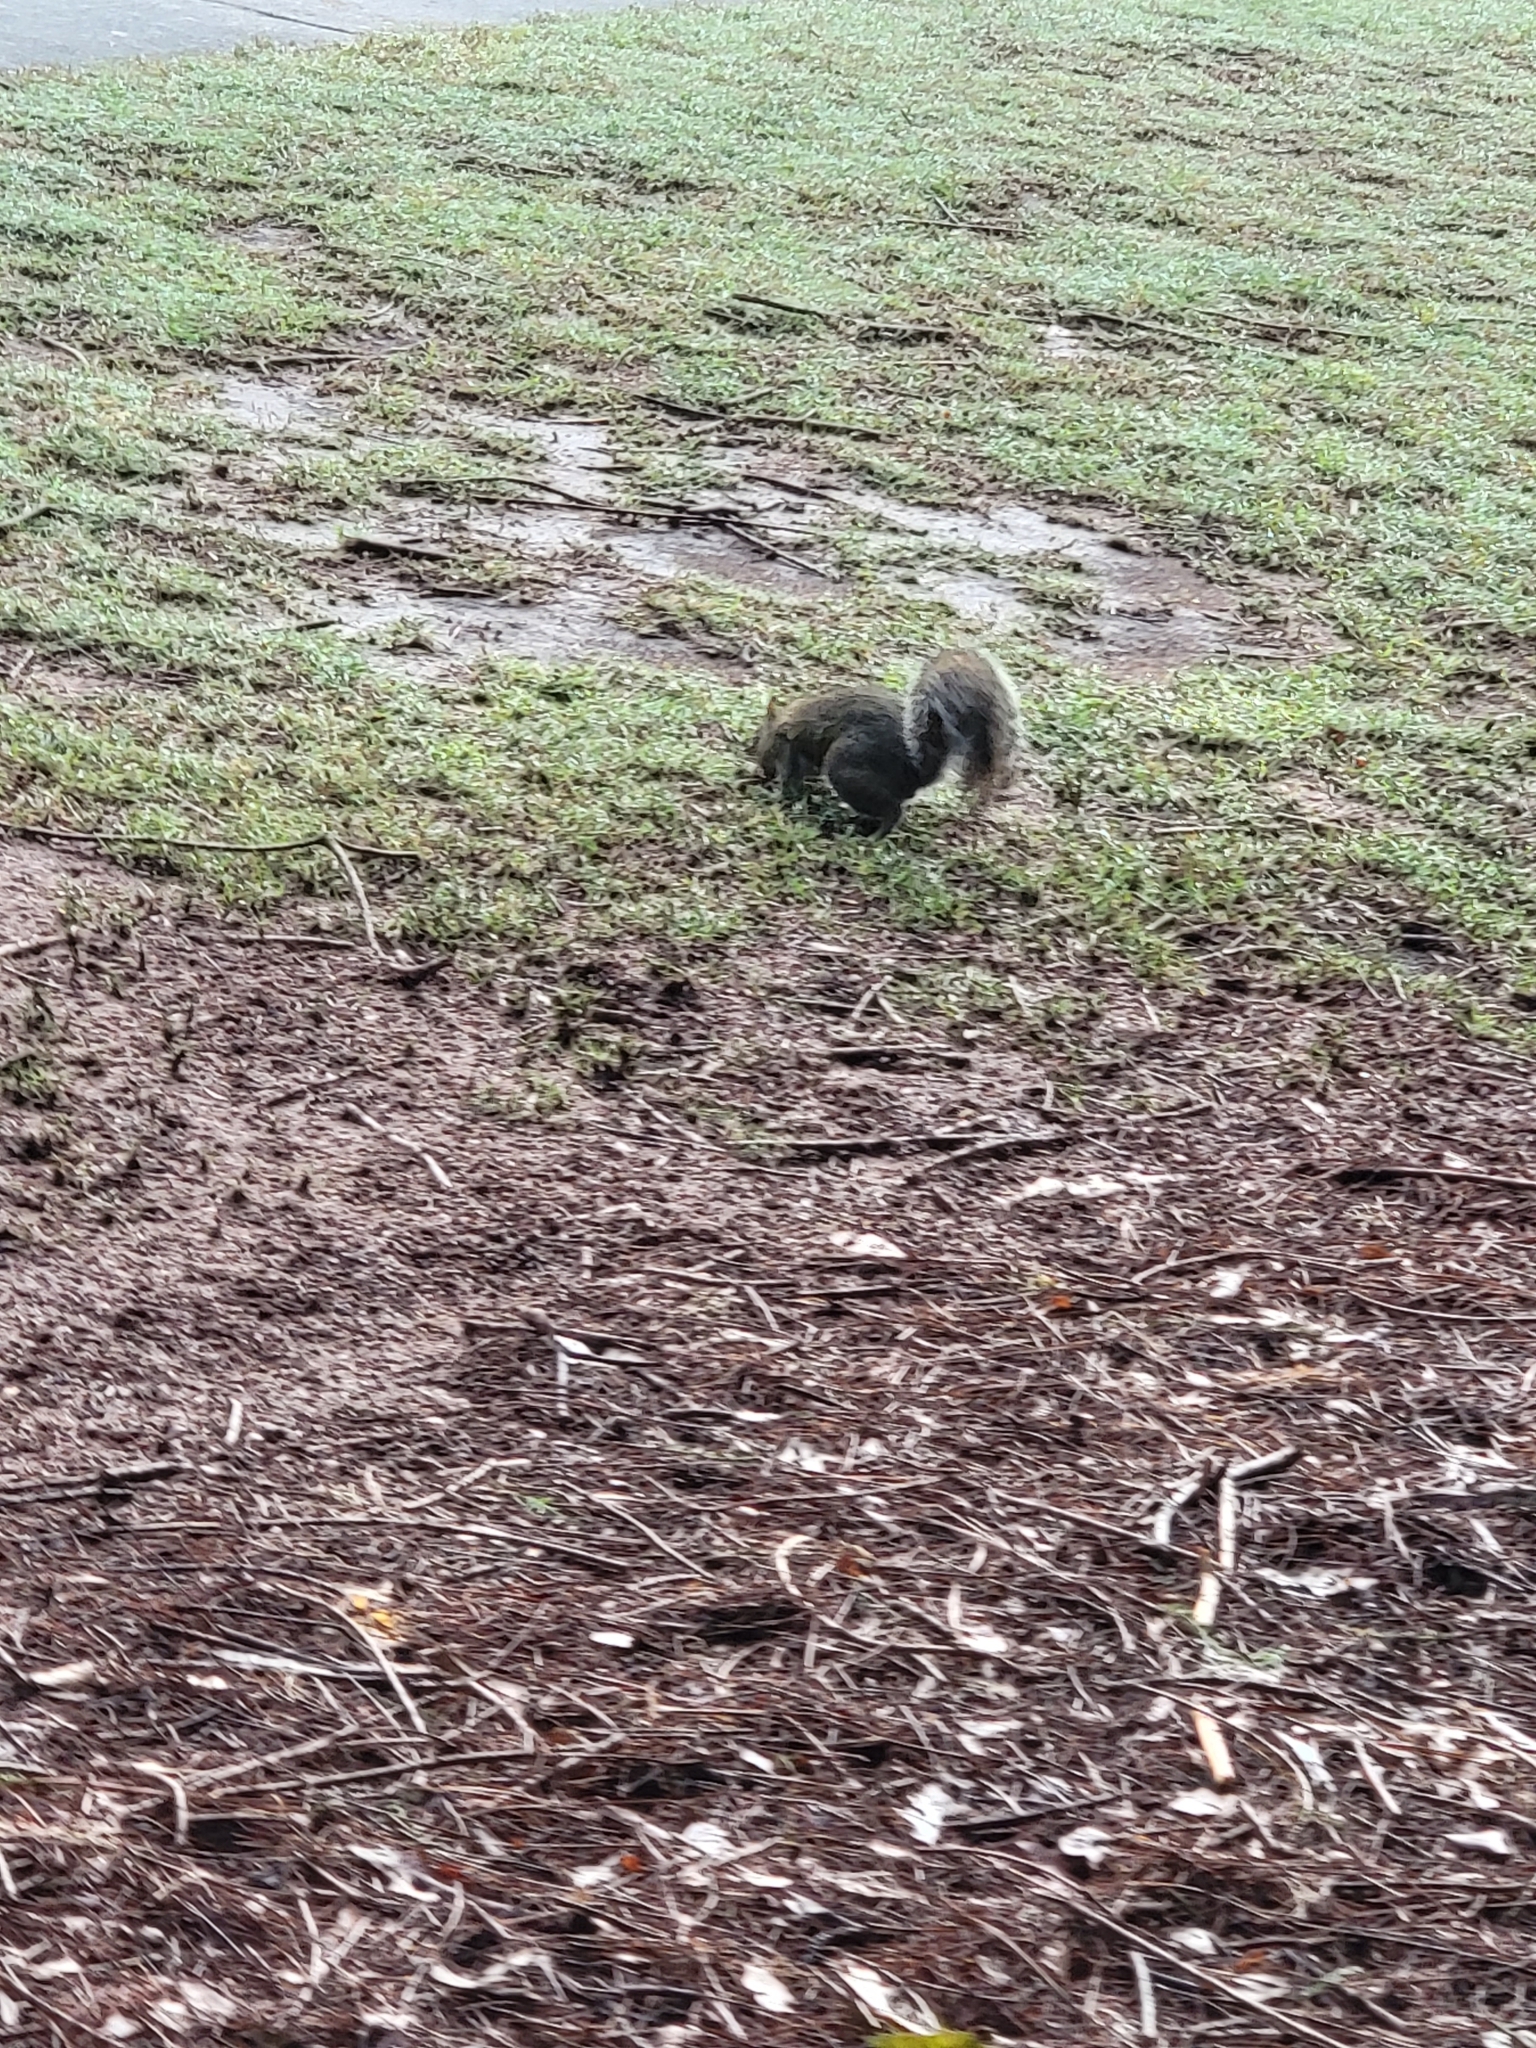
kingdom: Animalia
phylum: Chordata
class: Mammalia
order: Rodentia
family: Sciuridae
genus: Sciurus
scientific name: Sciurus carolinensis
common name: Eastern gray squirrel
